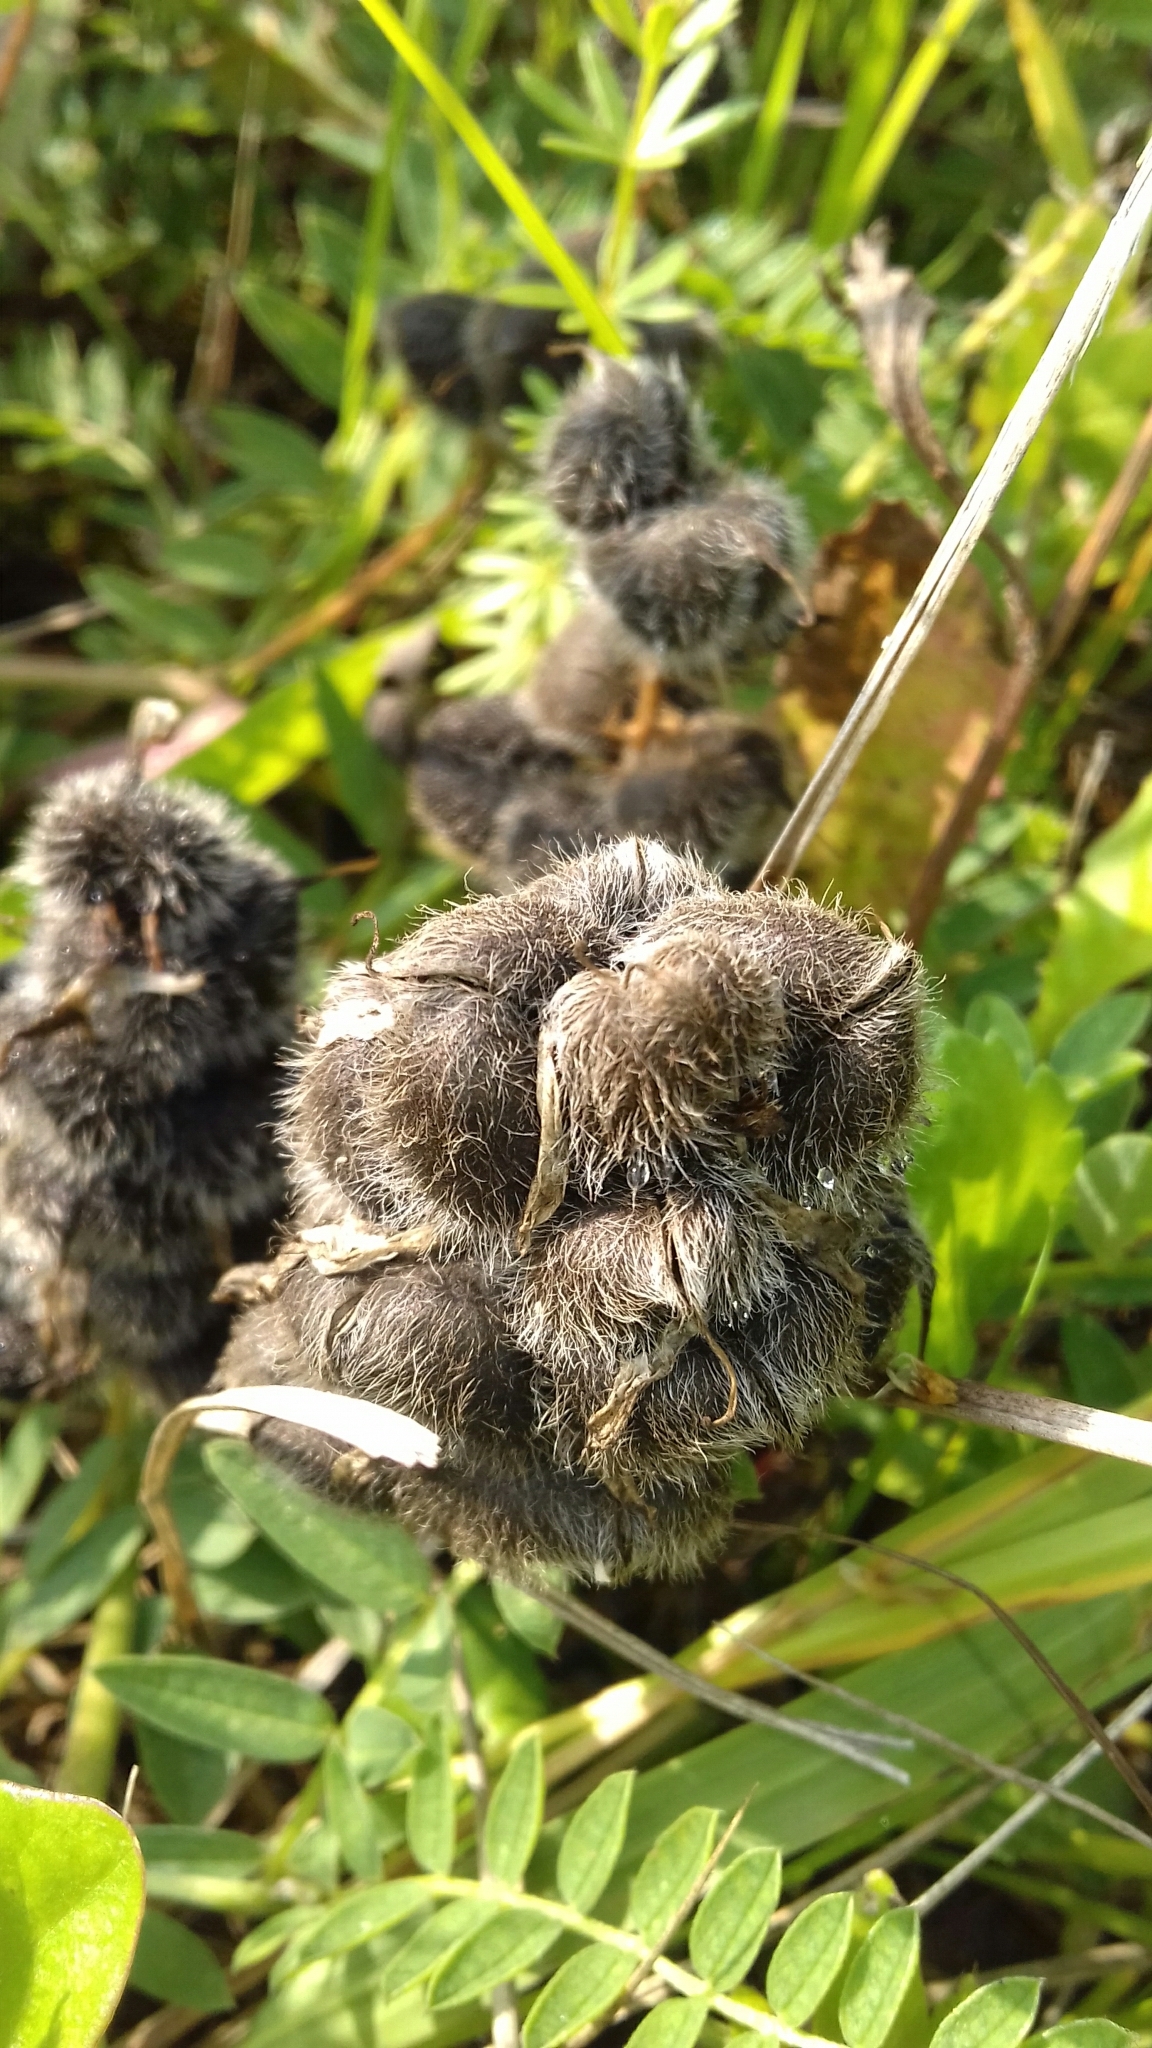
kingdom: Plantae
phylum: Tracheophyta
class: Magnoliopsida
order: Fabales
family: Fabaceae
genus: Astragalus
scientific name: Astragalus cicer
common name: Chick-pea milk-vetch
